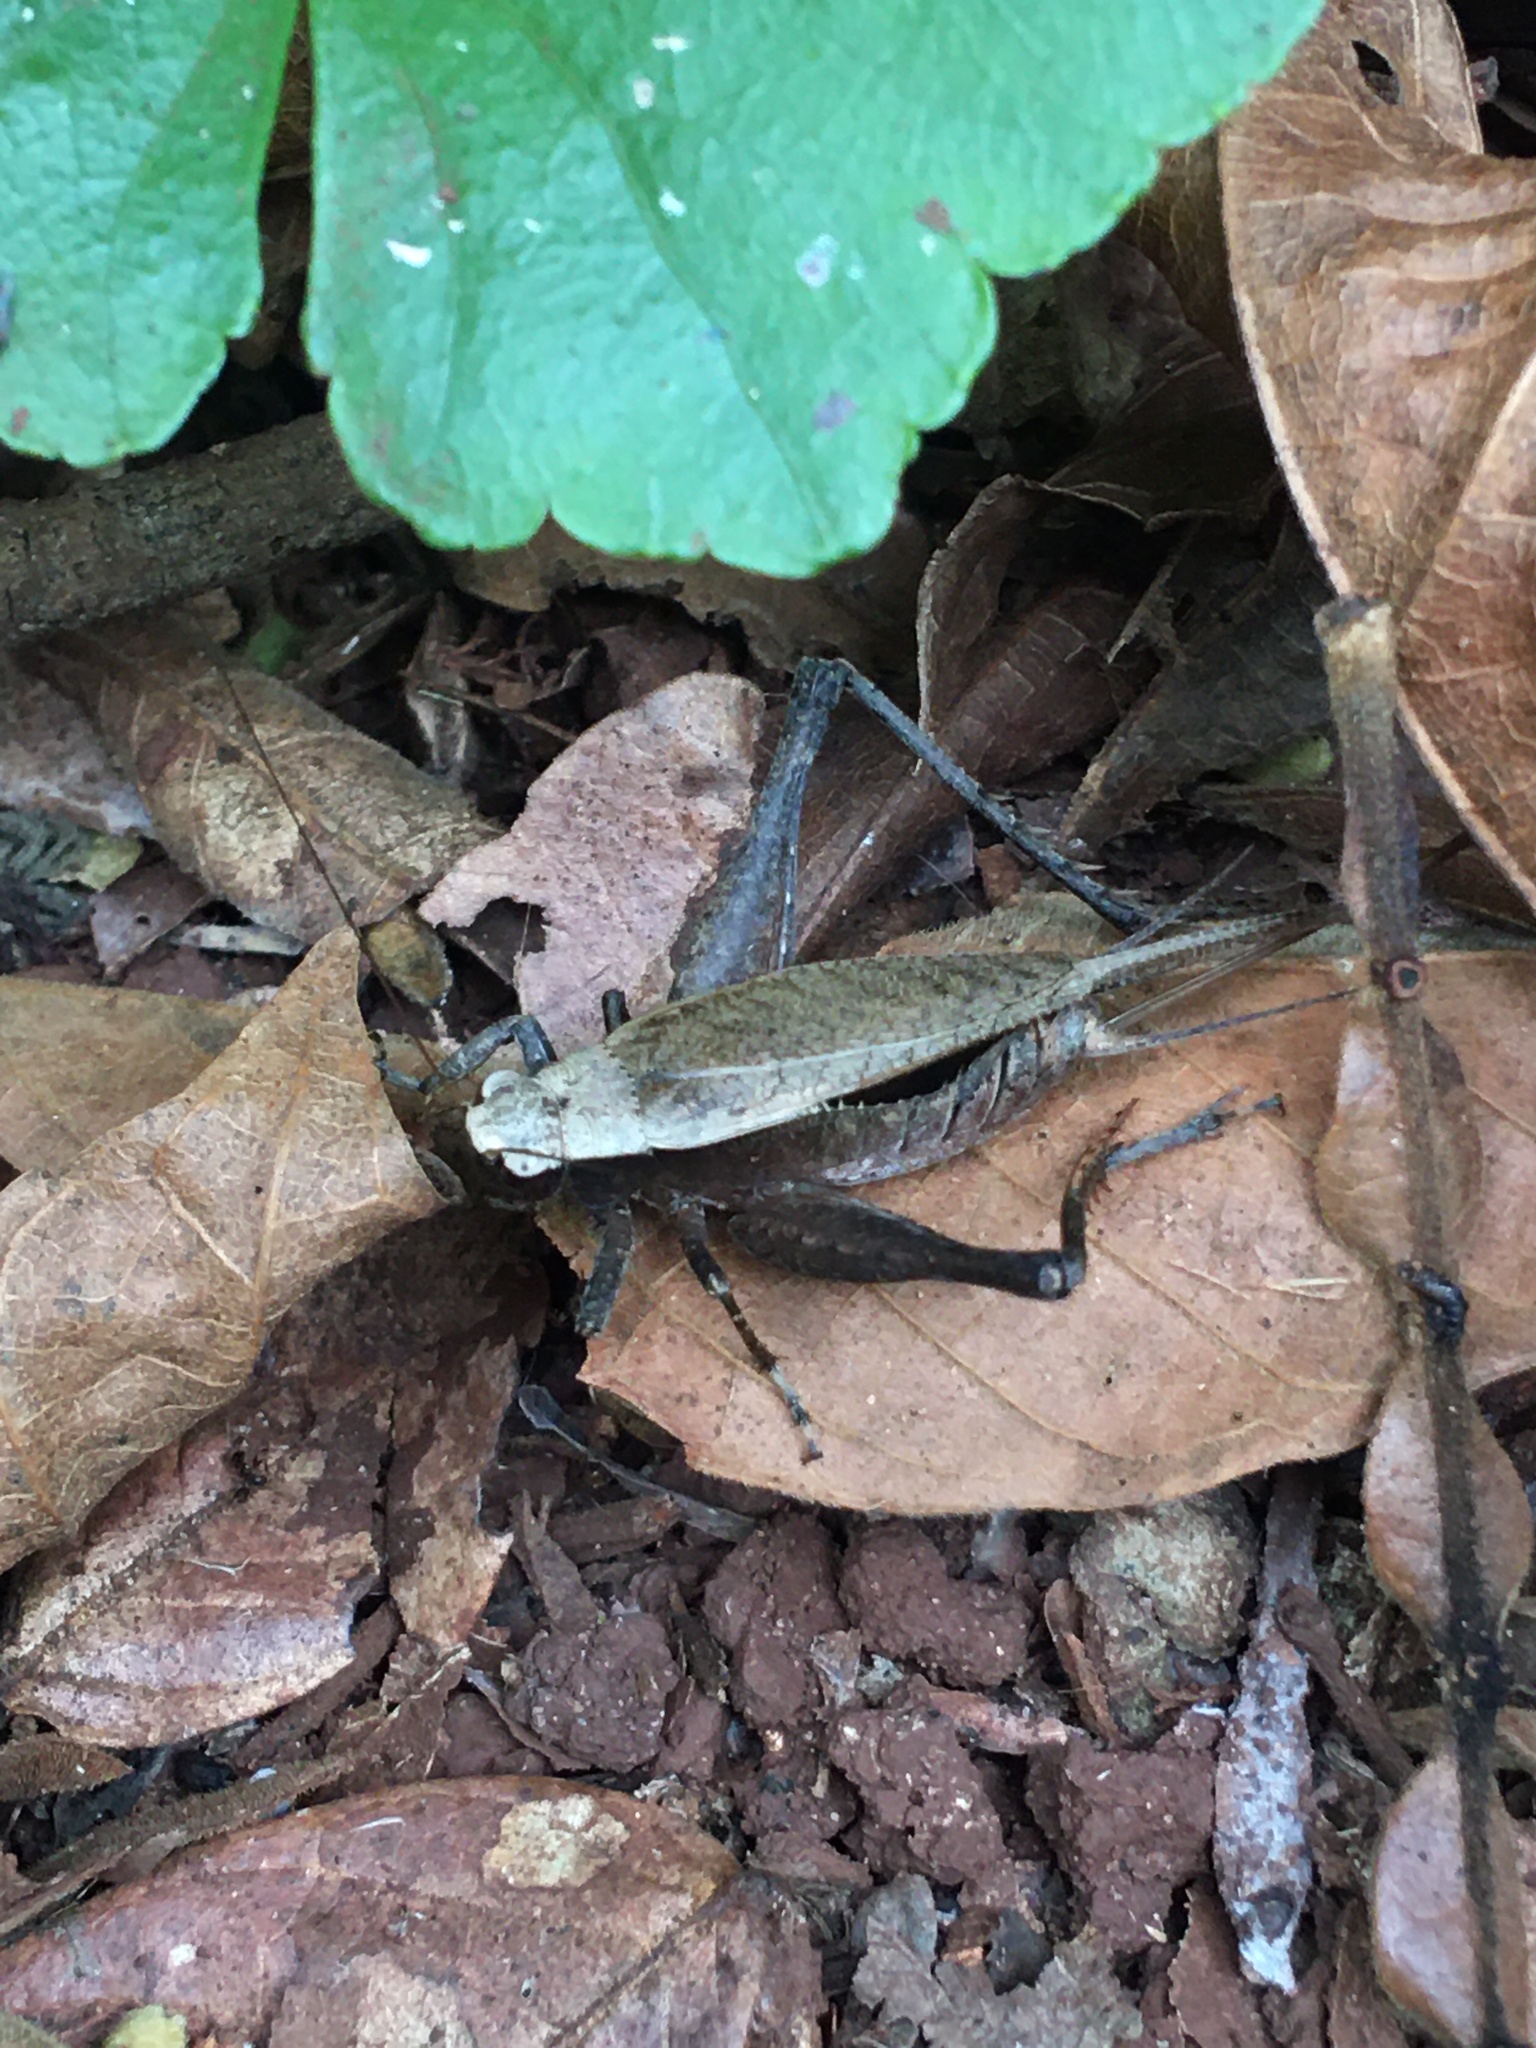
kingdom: Animalia
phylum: Arthropoda
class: Insecta
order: Orthoptera
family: Gryllidae
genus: Eneoptera
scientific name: Eneoptera surinamensis
